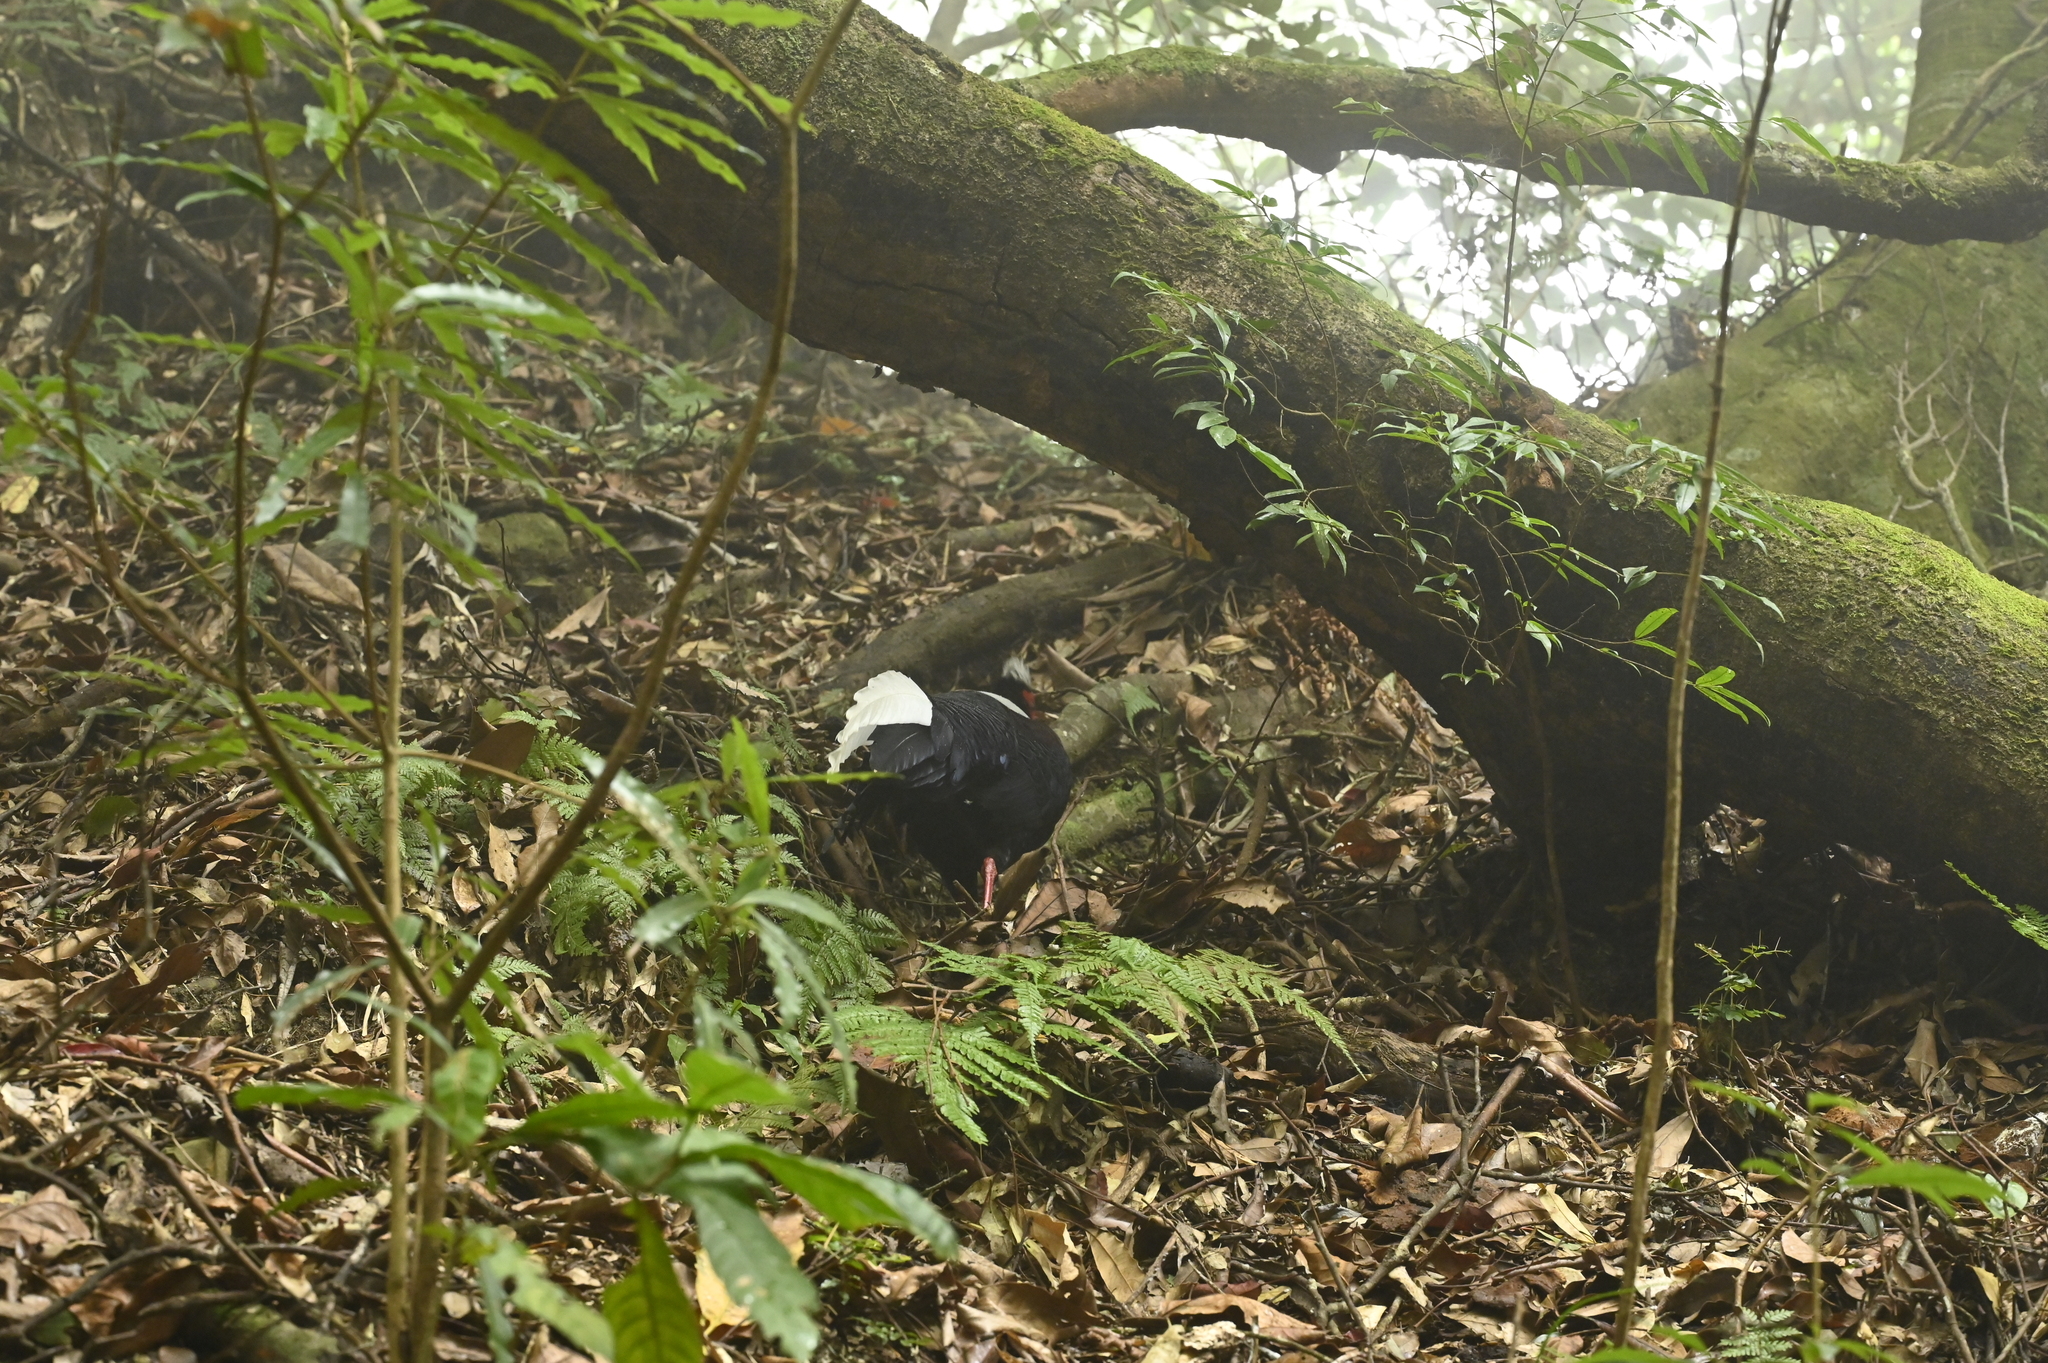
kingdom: Animalia
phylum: Chordata
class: Aves
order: Galliformes
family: Phasianidae
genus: Lophura
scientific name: Lophura swinhoii
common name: Swinhoe's pheasant
